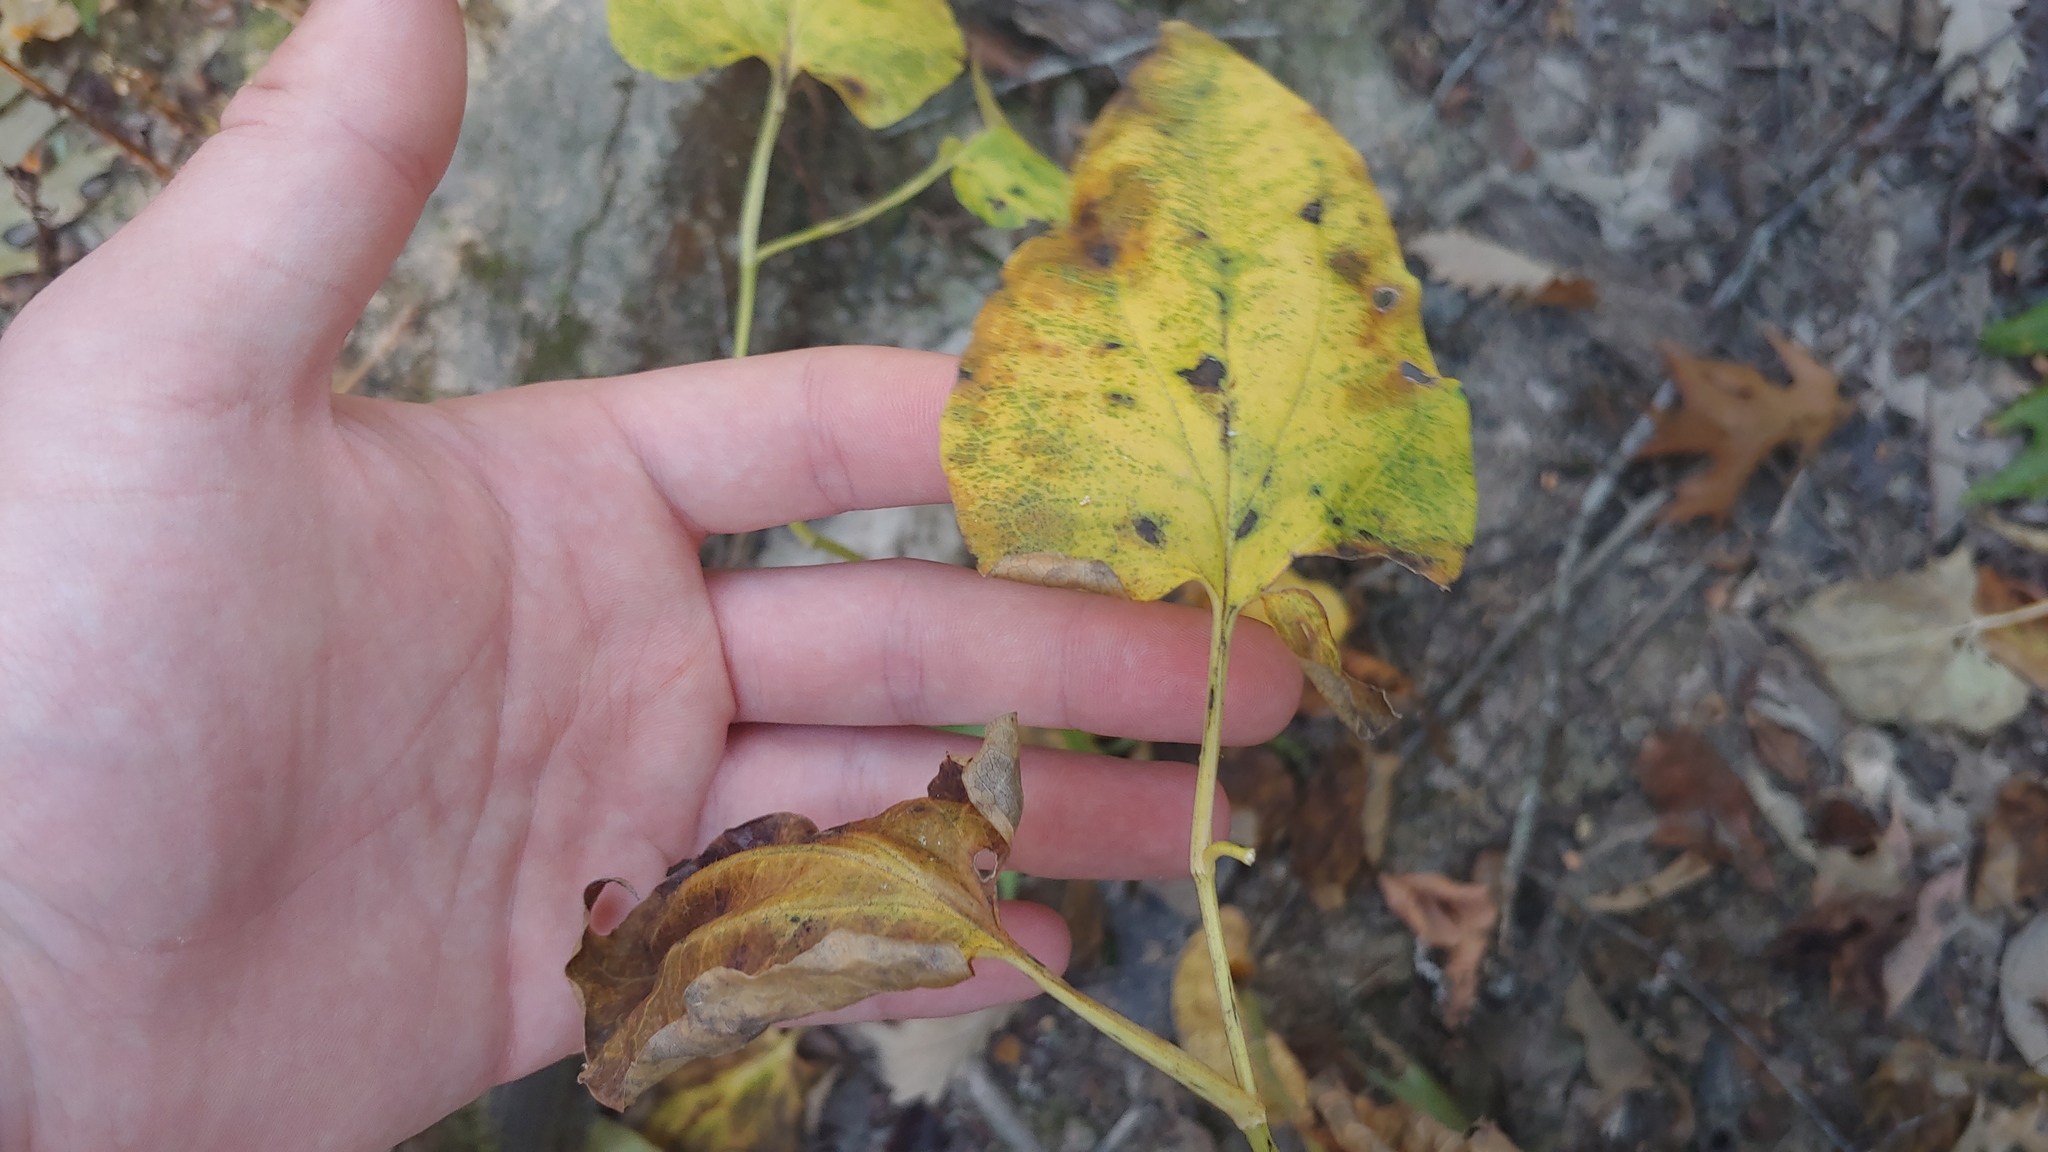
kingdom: Plantae
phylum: Tracheophyta
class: Magnoliopsida
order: Piperales
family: Saururaceae
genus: Saururus
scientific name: Saururus cernuus
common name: Lizard's-tail
